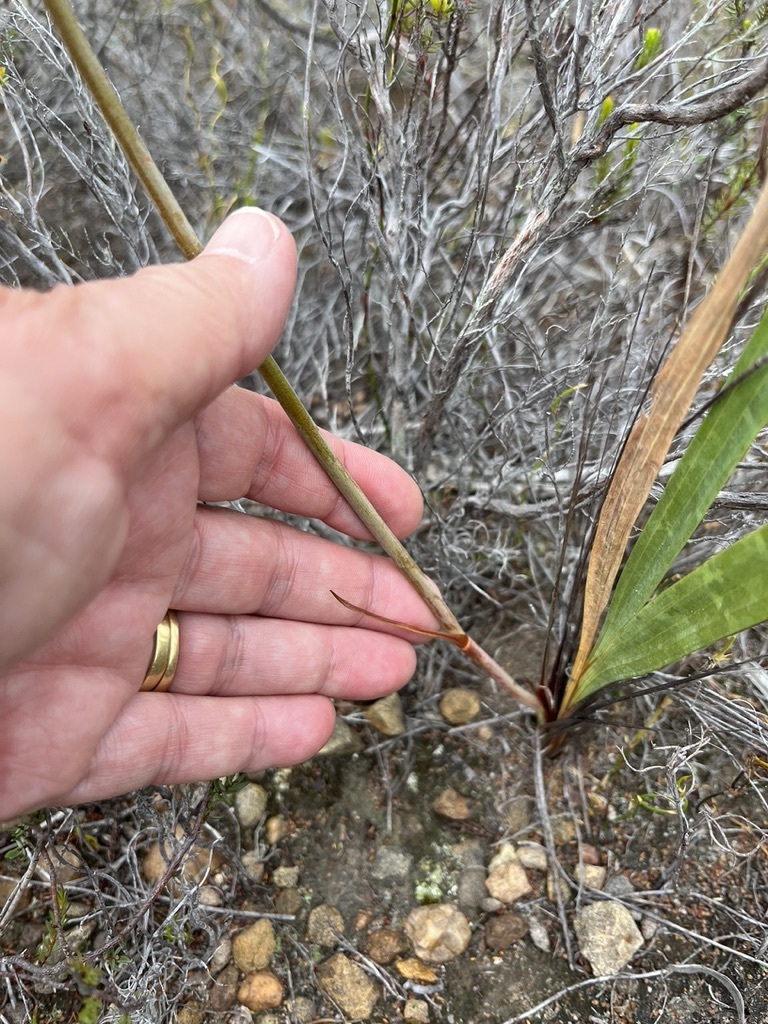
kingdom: Plantae
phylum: Tracheophyta
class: Liliopsida
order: Asparagales
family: Iridaceae
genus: Tritoniopsis
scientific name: Tritoniopsis antholyza
